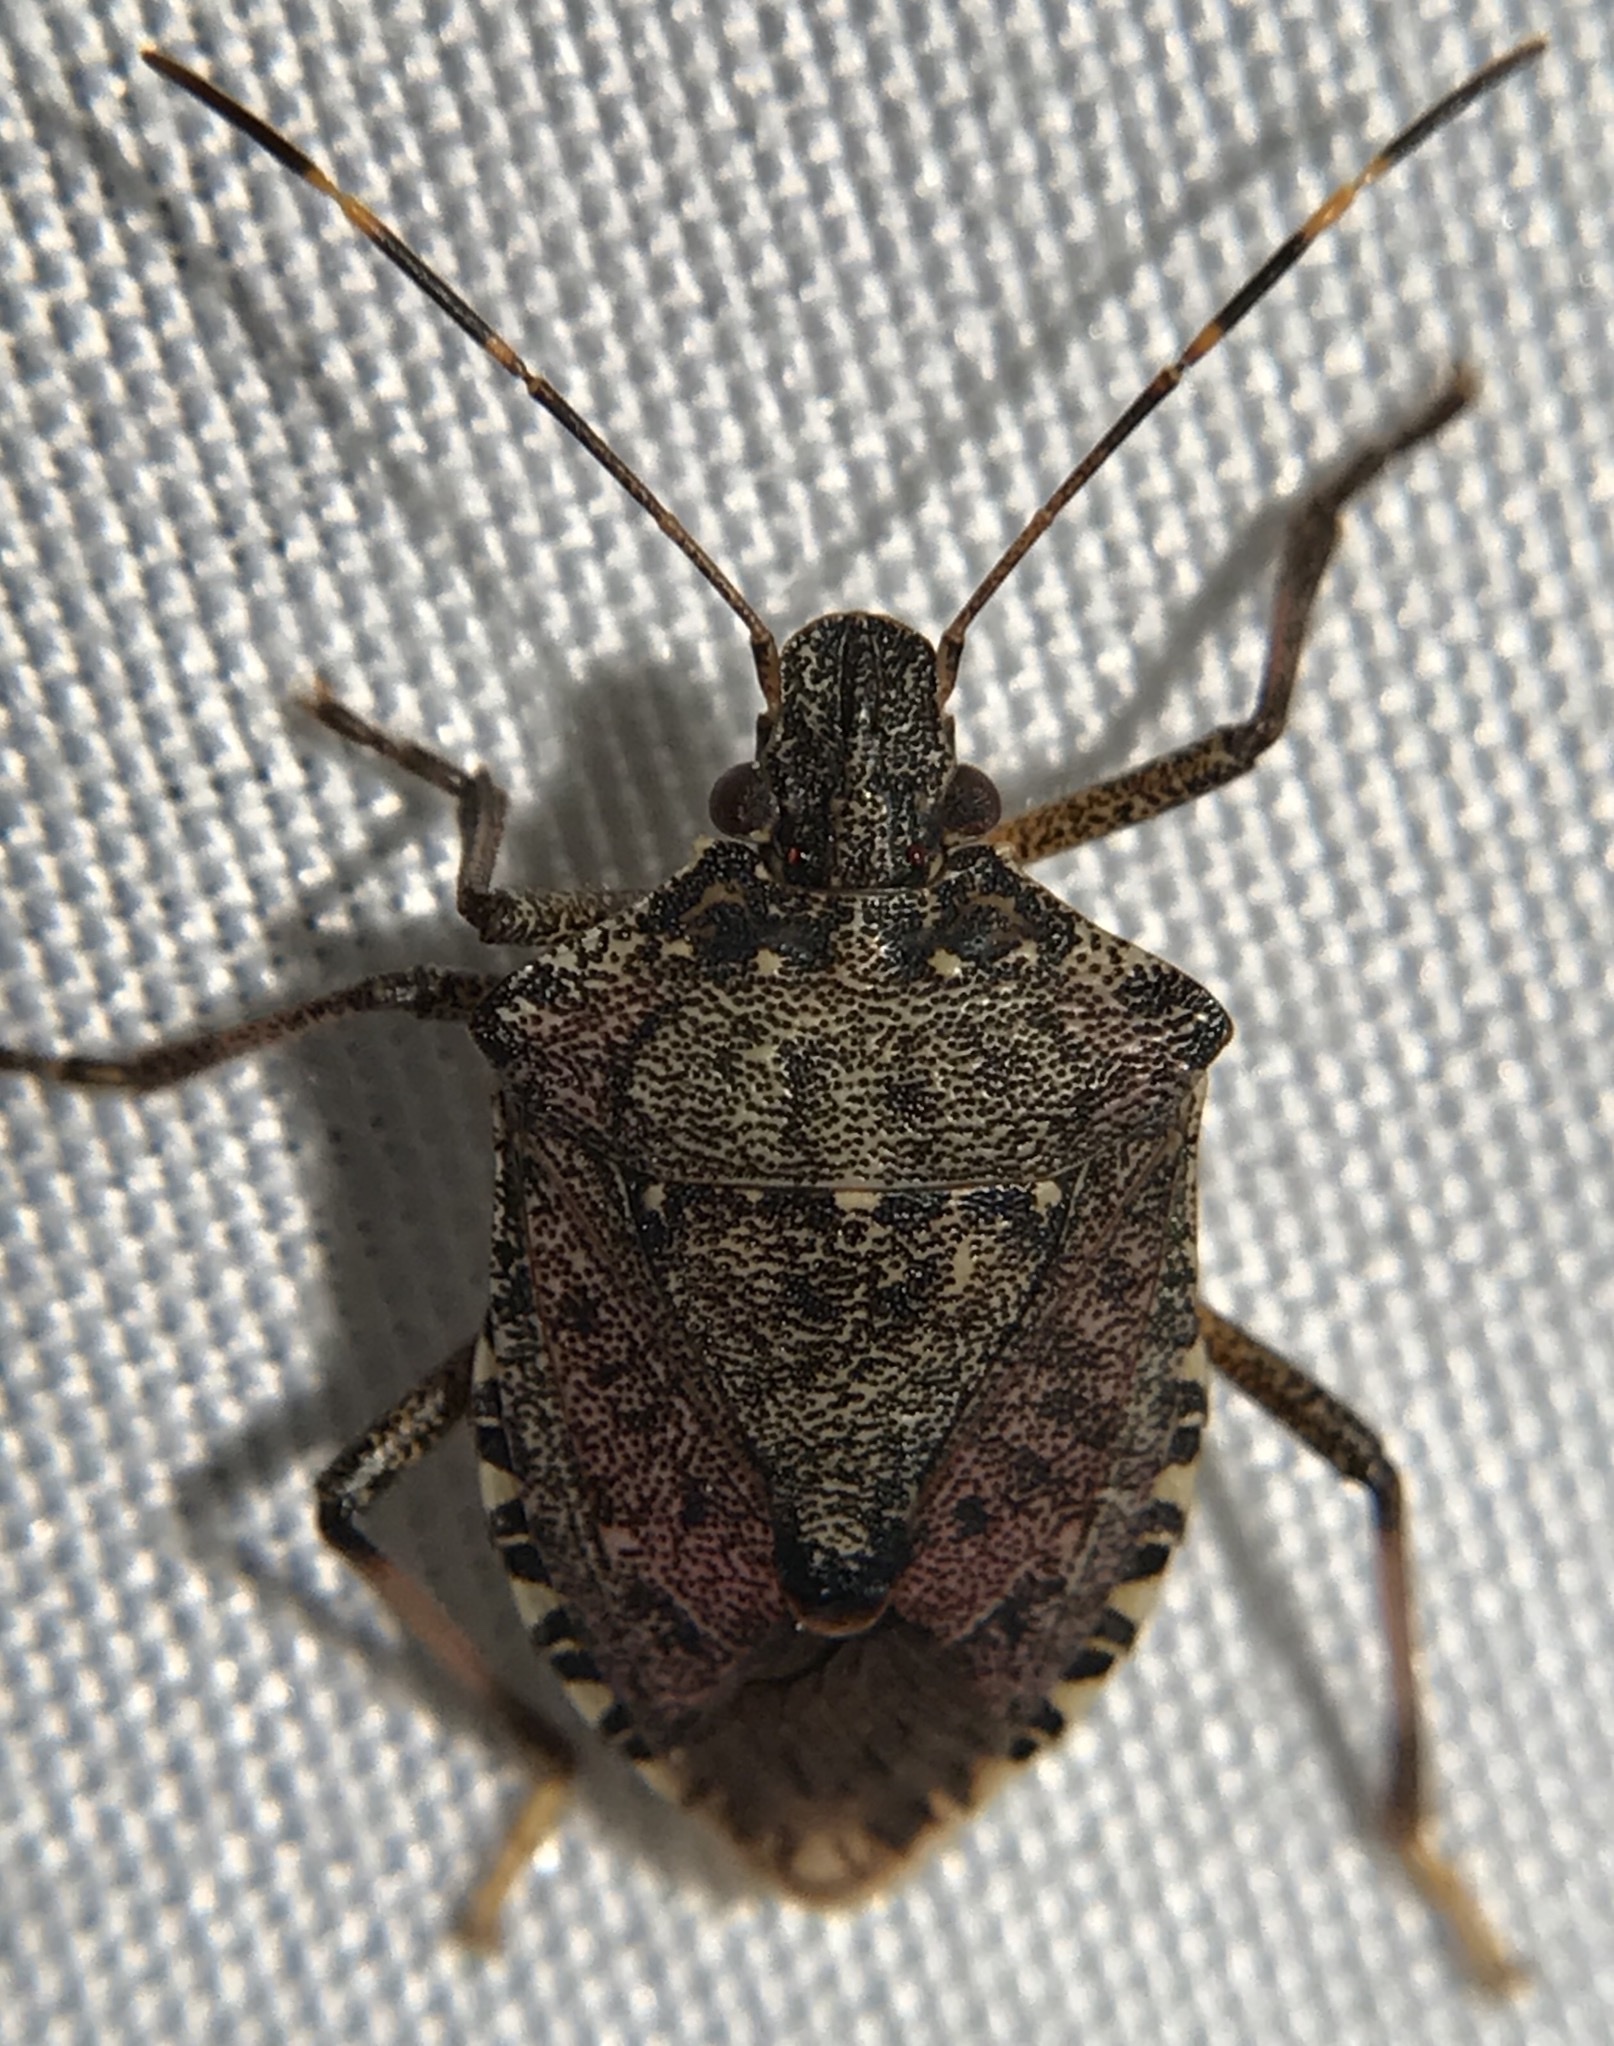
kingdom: Animalia
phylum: Arthropoda
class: Insecta
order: Hemiptera
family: Pentatomidae
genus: Halyomorpha
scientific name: Halyomorpha halys
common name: Brown marmorated stink bug
